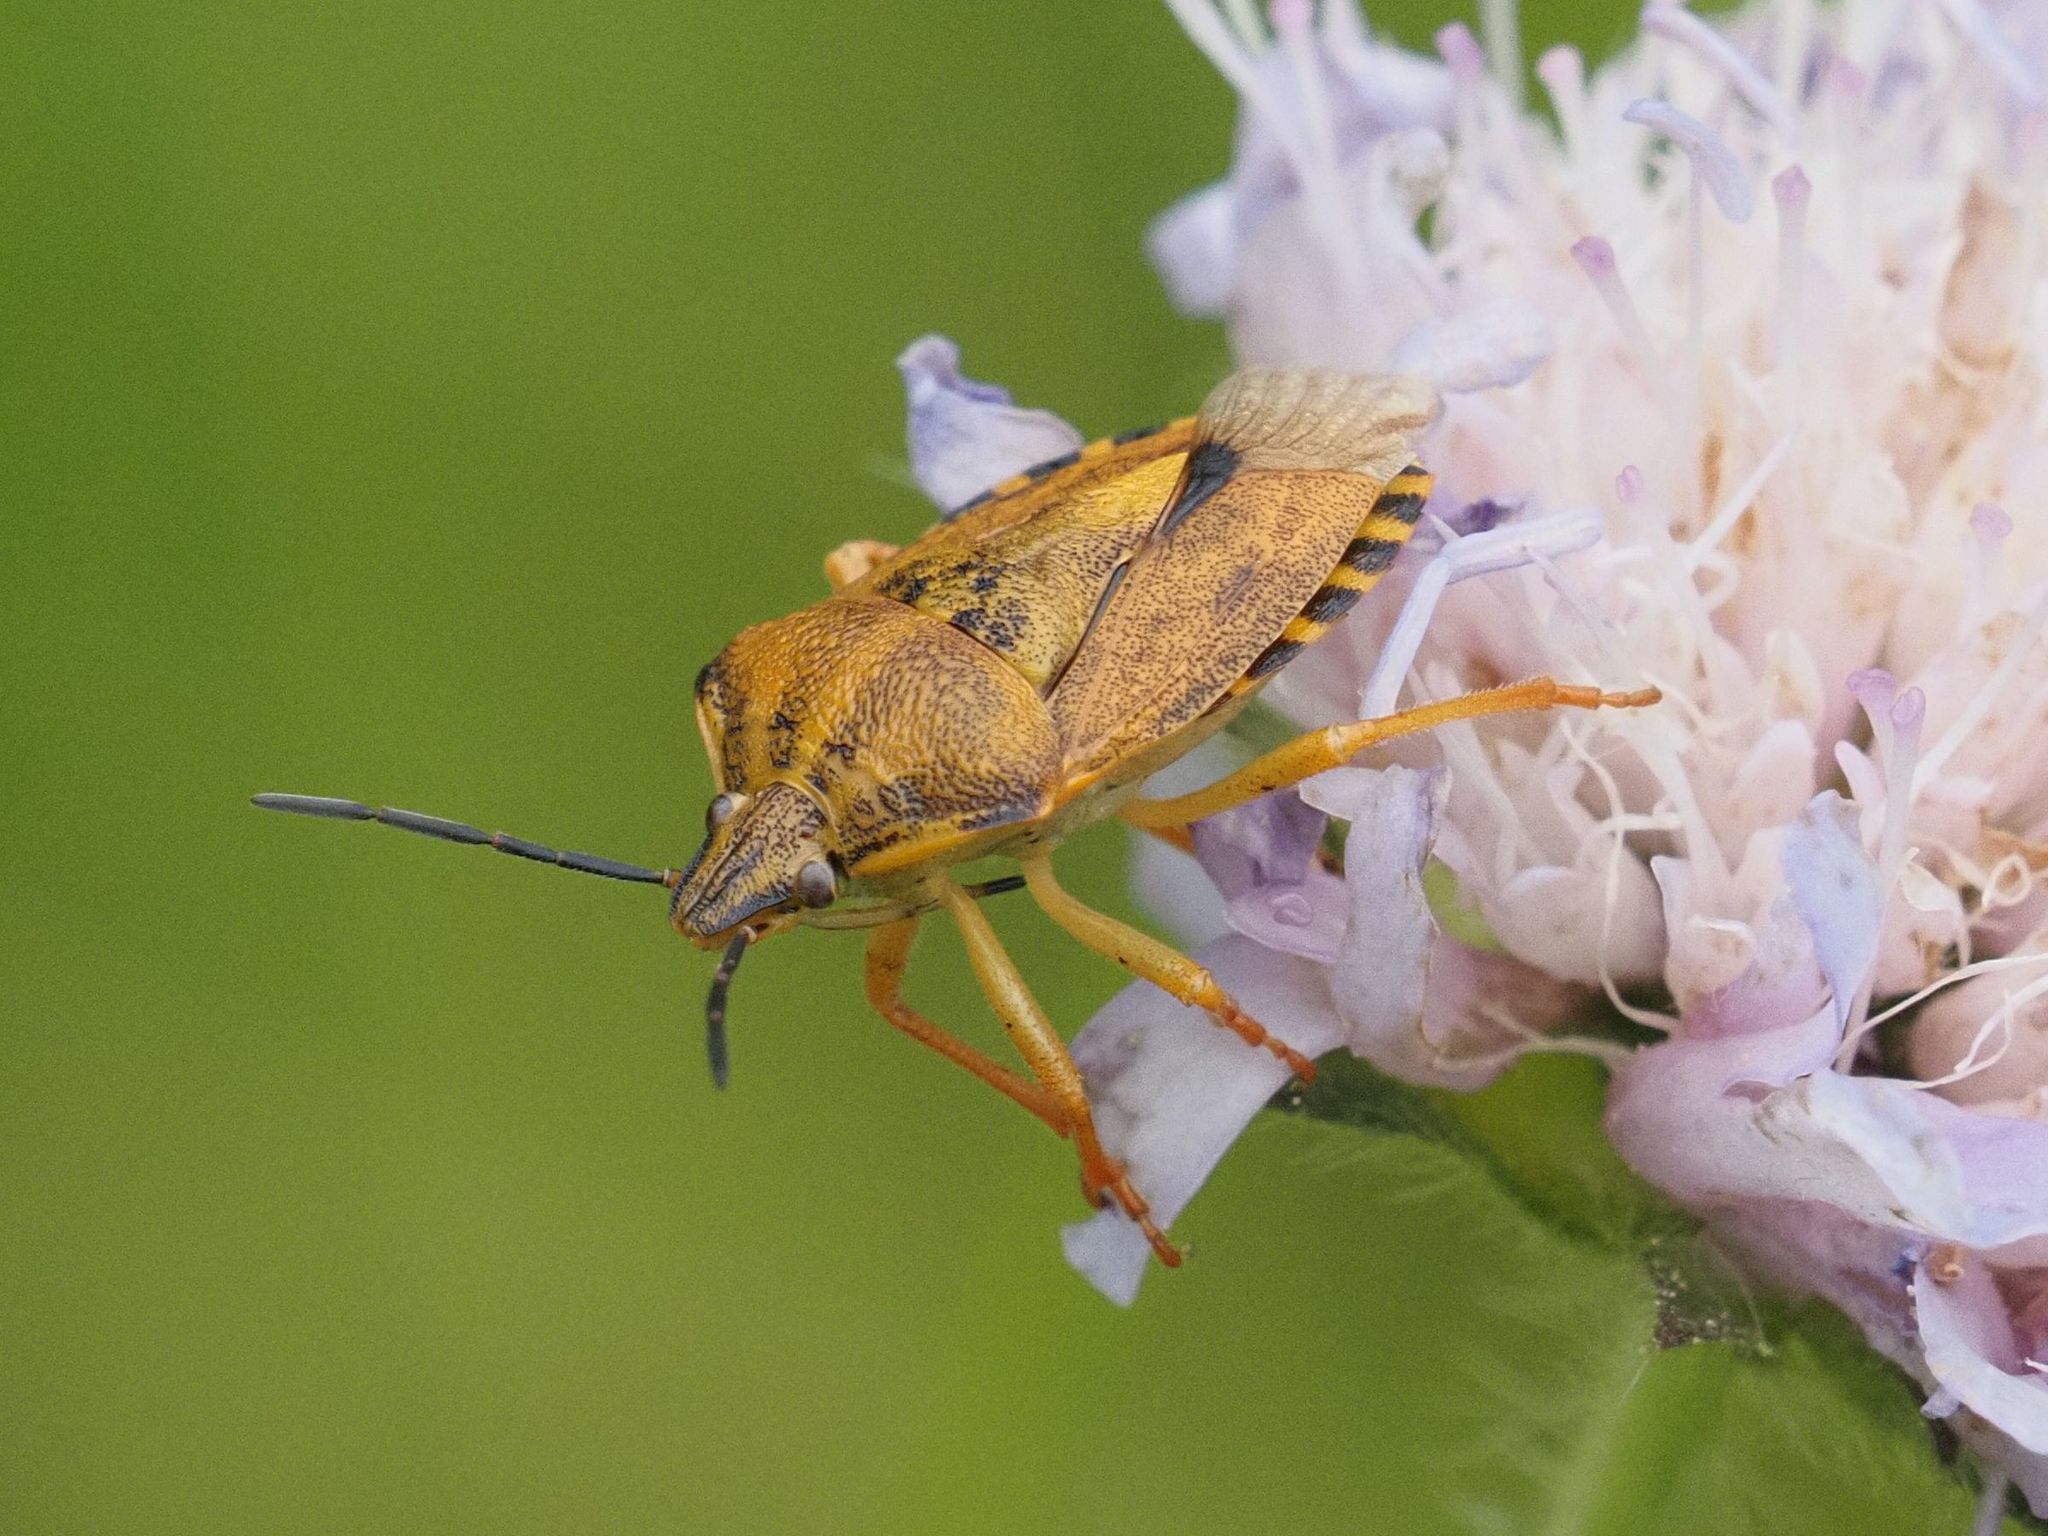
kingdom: Animalia
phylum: Arthropoda
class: Insecta
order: Hemiptera
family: Pentatomidae
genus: Carpocoris
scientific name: Carpocoris purpureipennis
